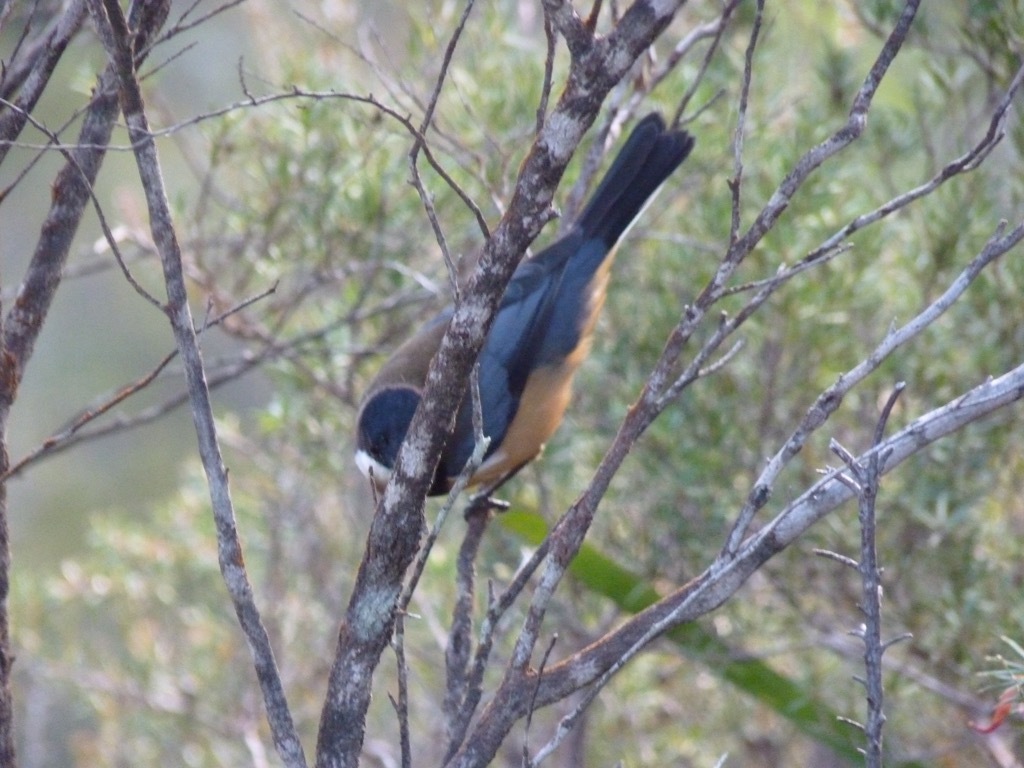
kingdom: Animalia
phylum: Chordata
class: Aves
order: Passeriformes
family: Meliphagidae
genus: Acanthorhynchus
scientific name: Acanthorhynchus tenuirostris
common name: Eastern spinebill
